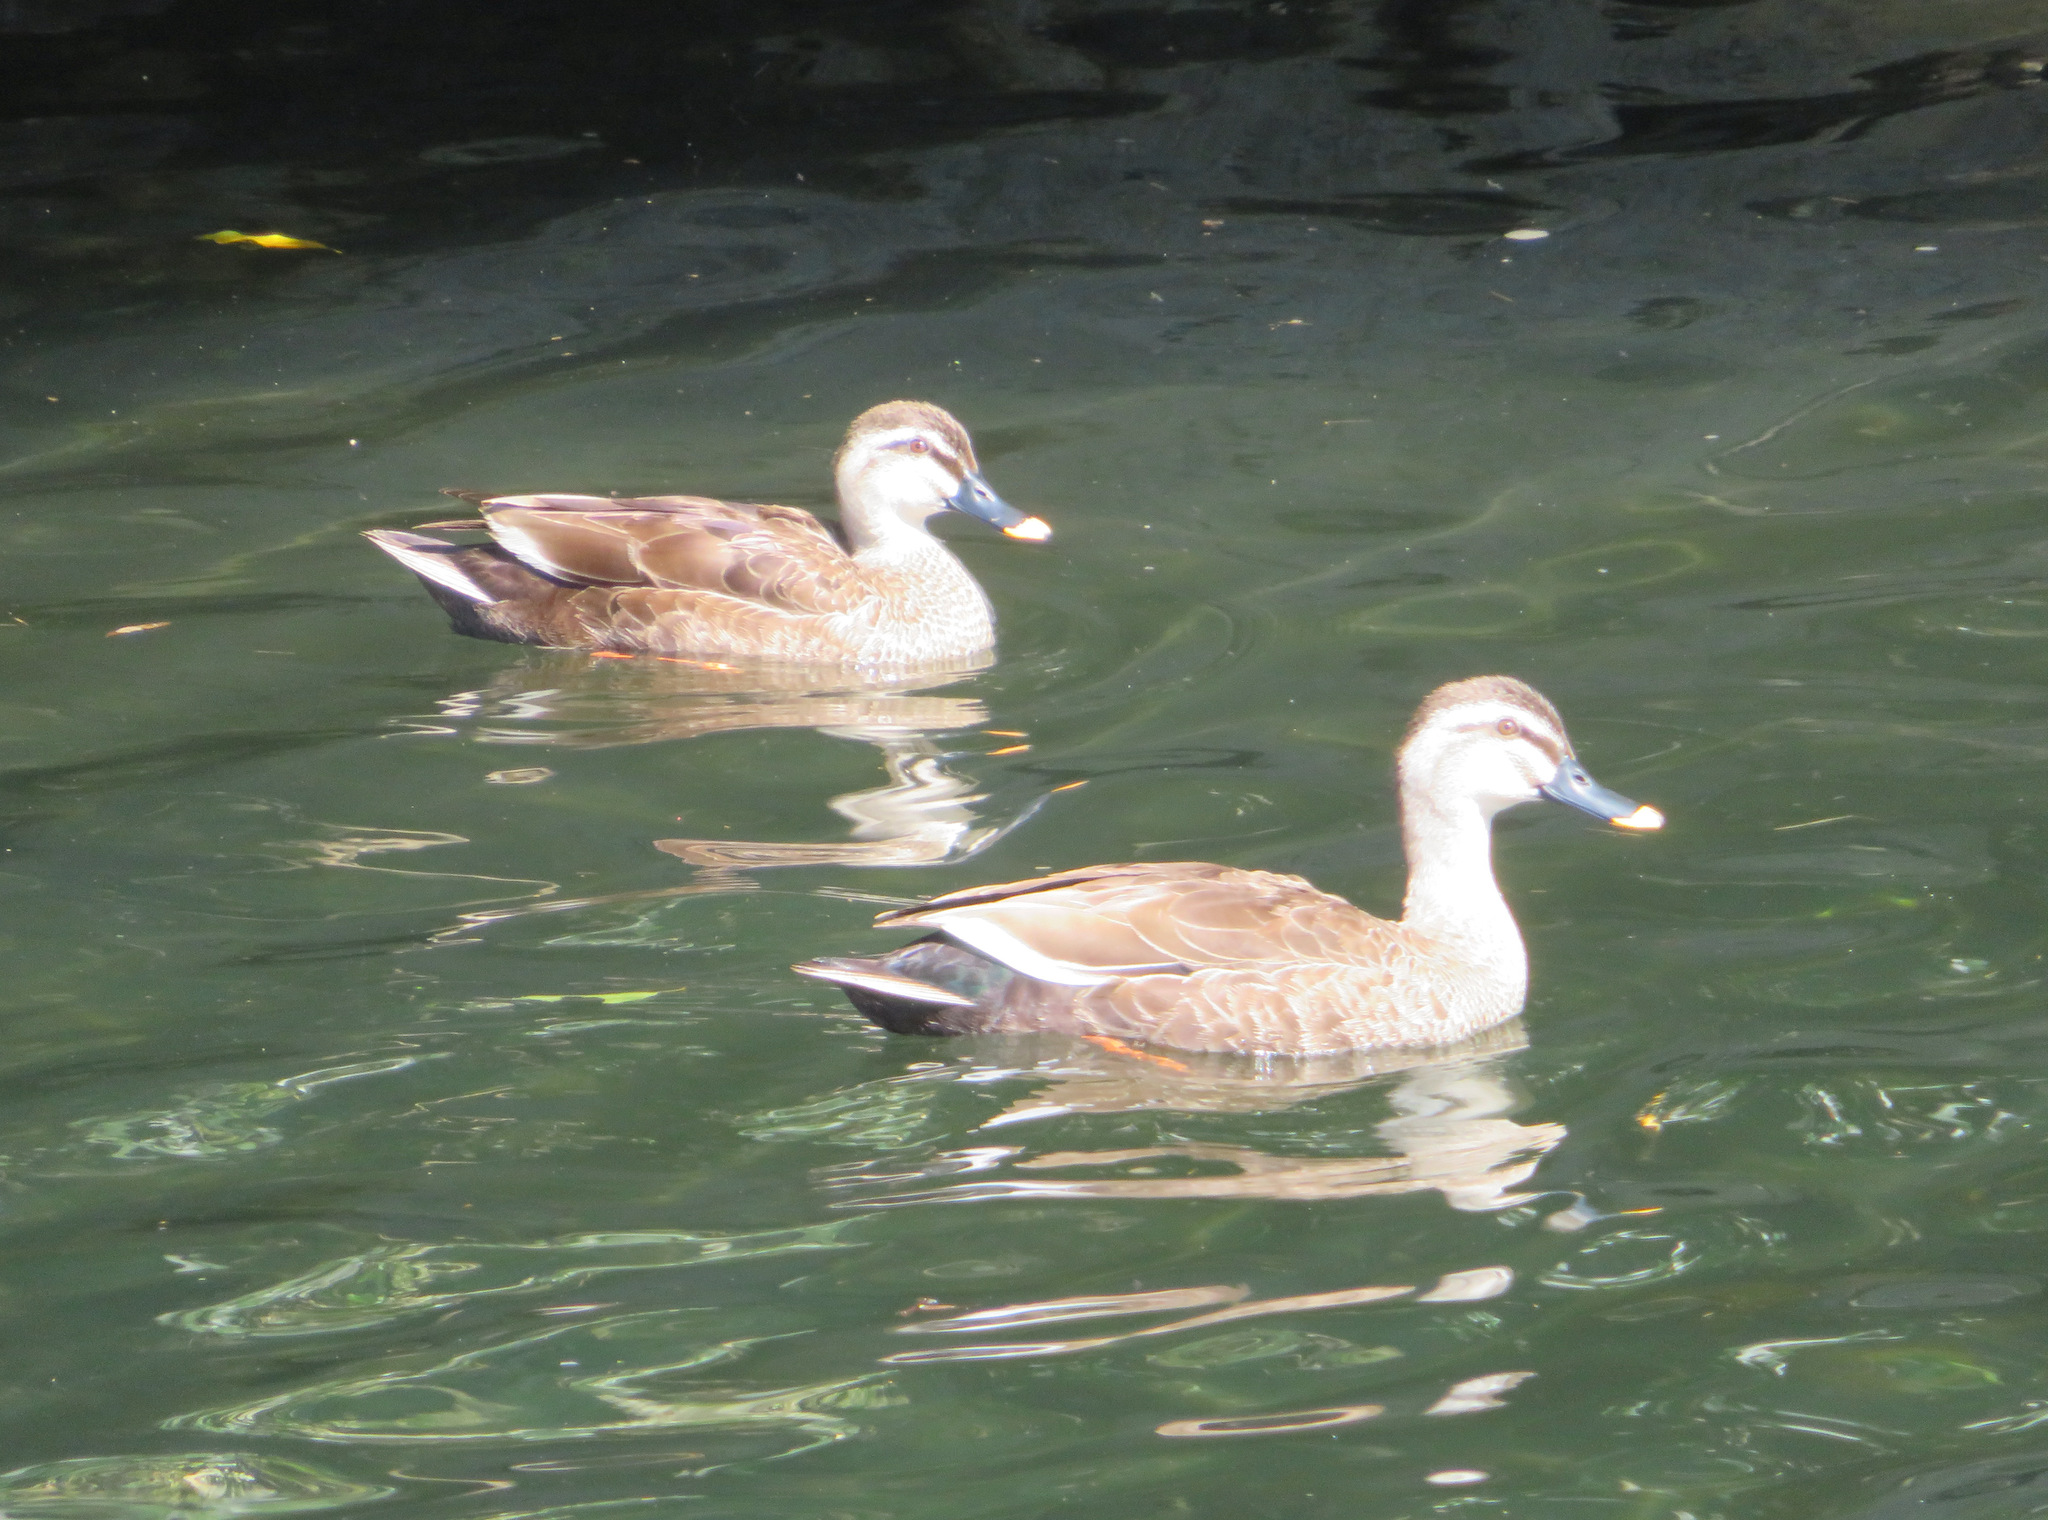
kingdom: Animalia
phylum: Chordata
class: Aves
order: Anseriformes
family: Anatidae
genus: Anas
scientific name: Anas zonorhyncha
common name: Eastern spot-billed duck
